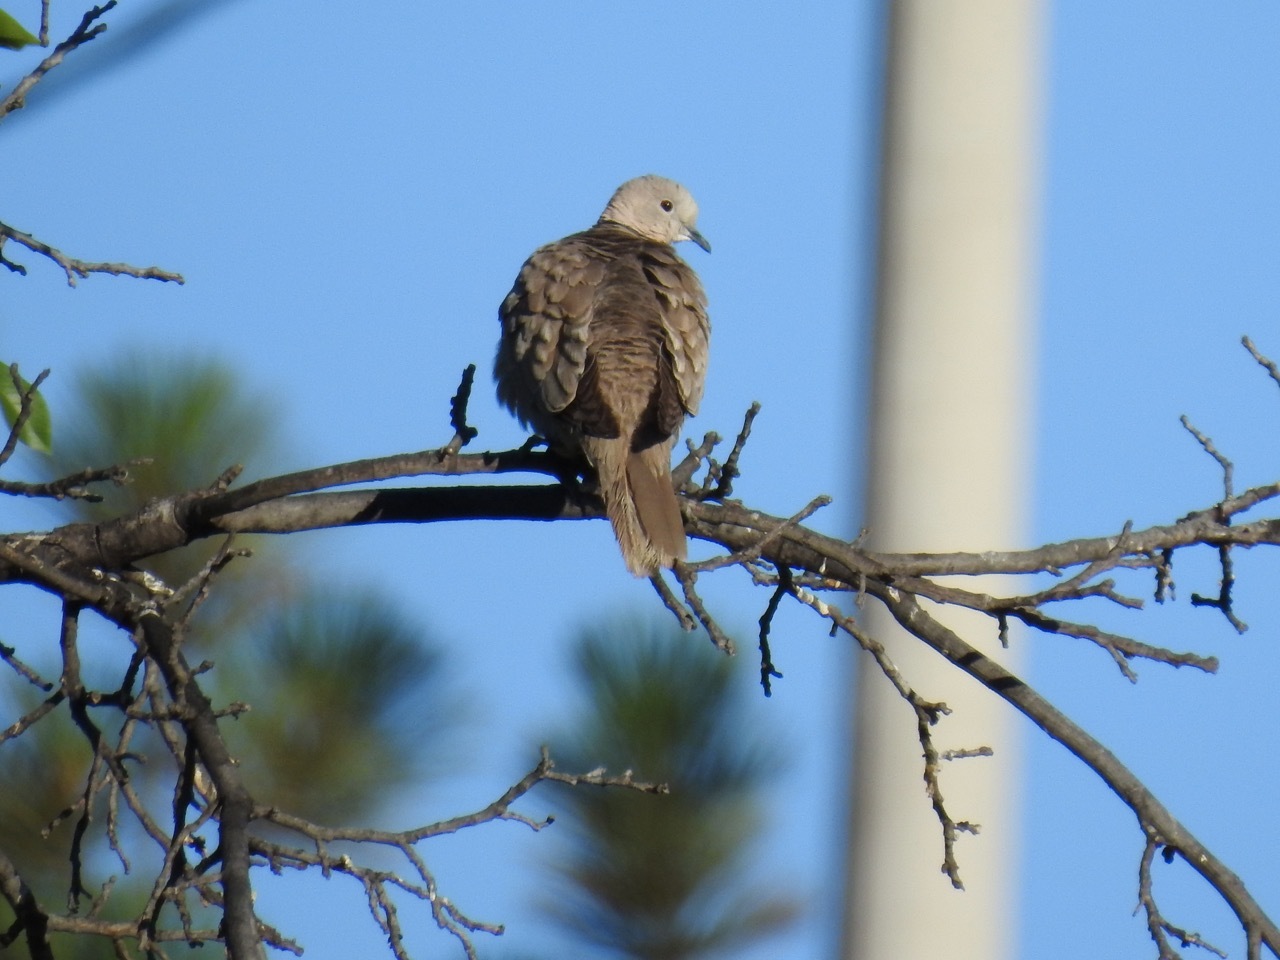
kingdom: Animalia
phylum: Chordata
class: Aves
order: Columbiformes
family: Columbidae
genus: Streptopelia
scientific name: Streptopelia decaocto
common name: Eurasian collared dove
